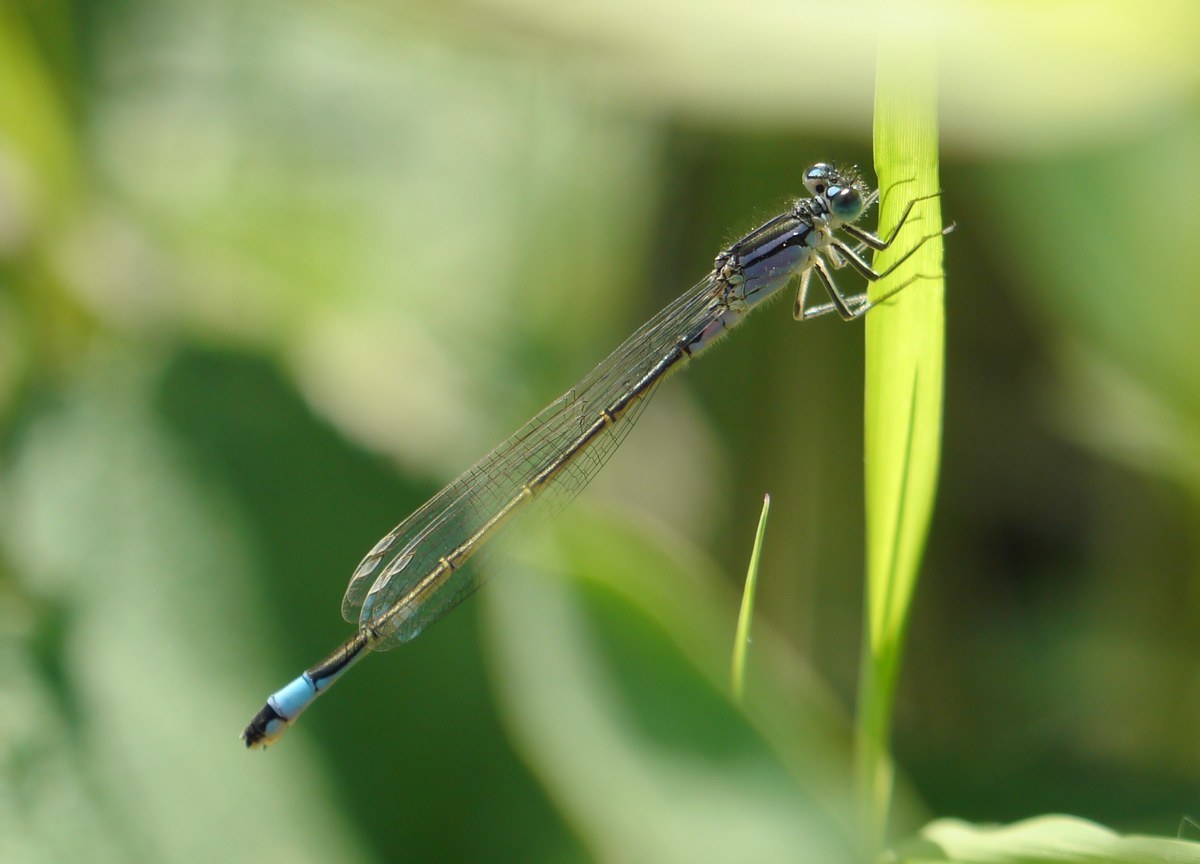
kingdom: Animalia
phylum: Arthropoda
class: Insecta
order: Odonata
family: Coenagrionidae
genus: Ischnura
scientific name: Ischnura elegans
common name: Blue-tailed damselfly
